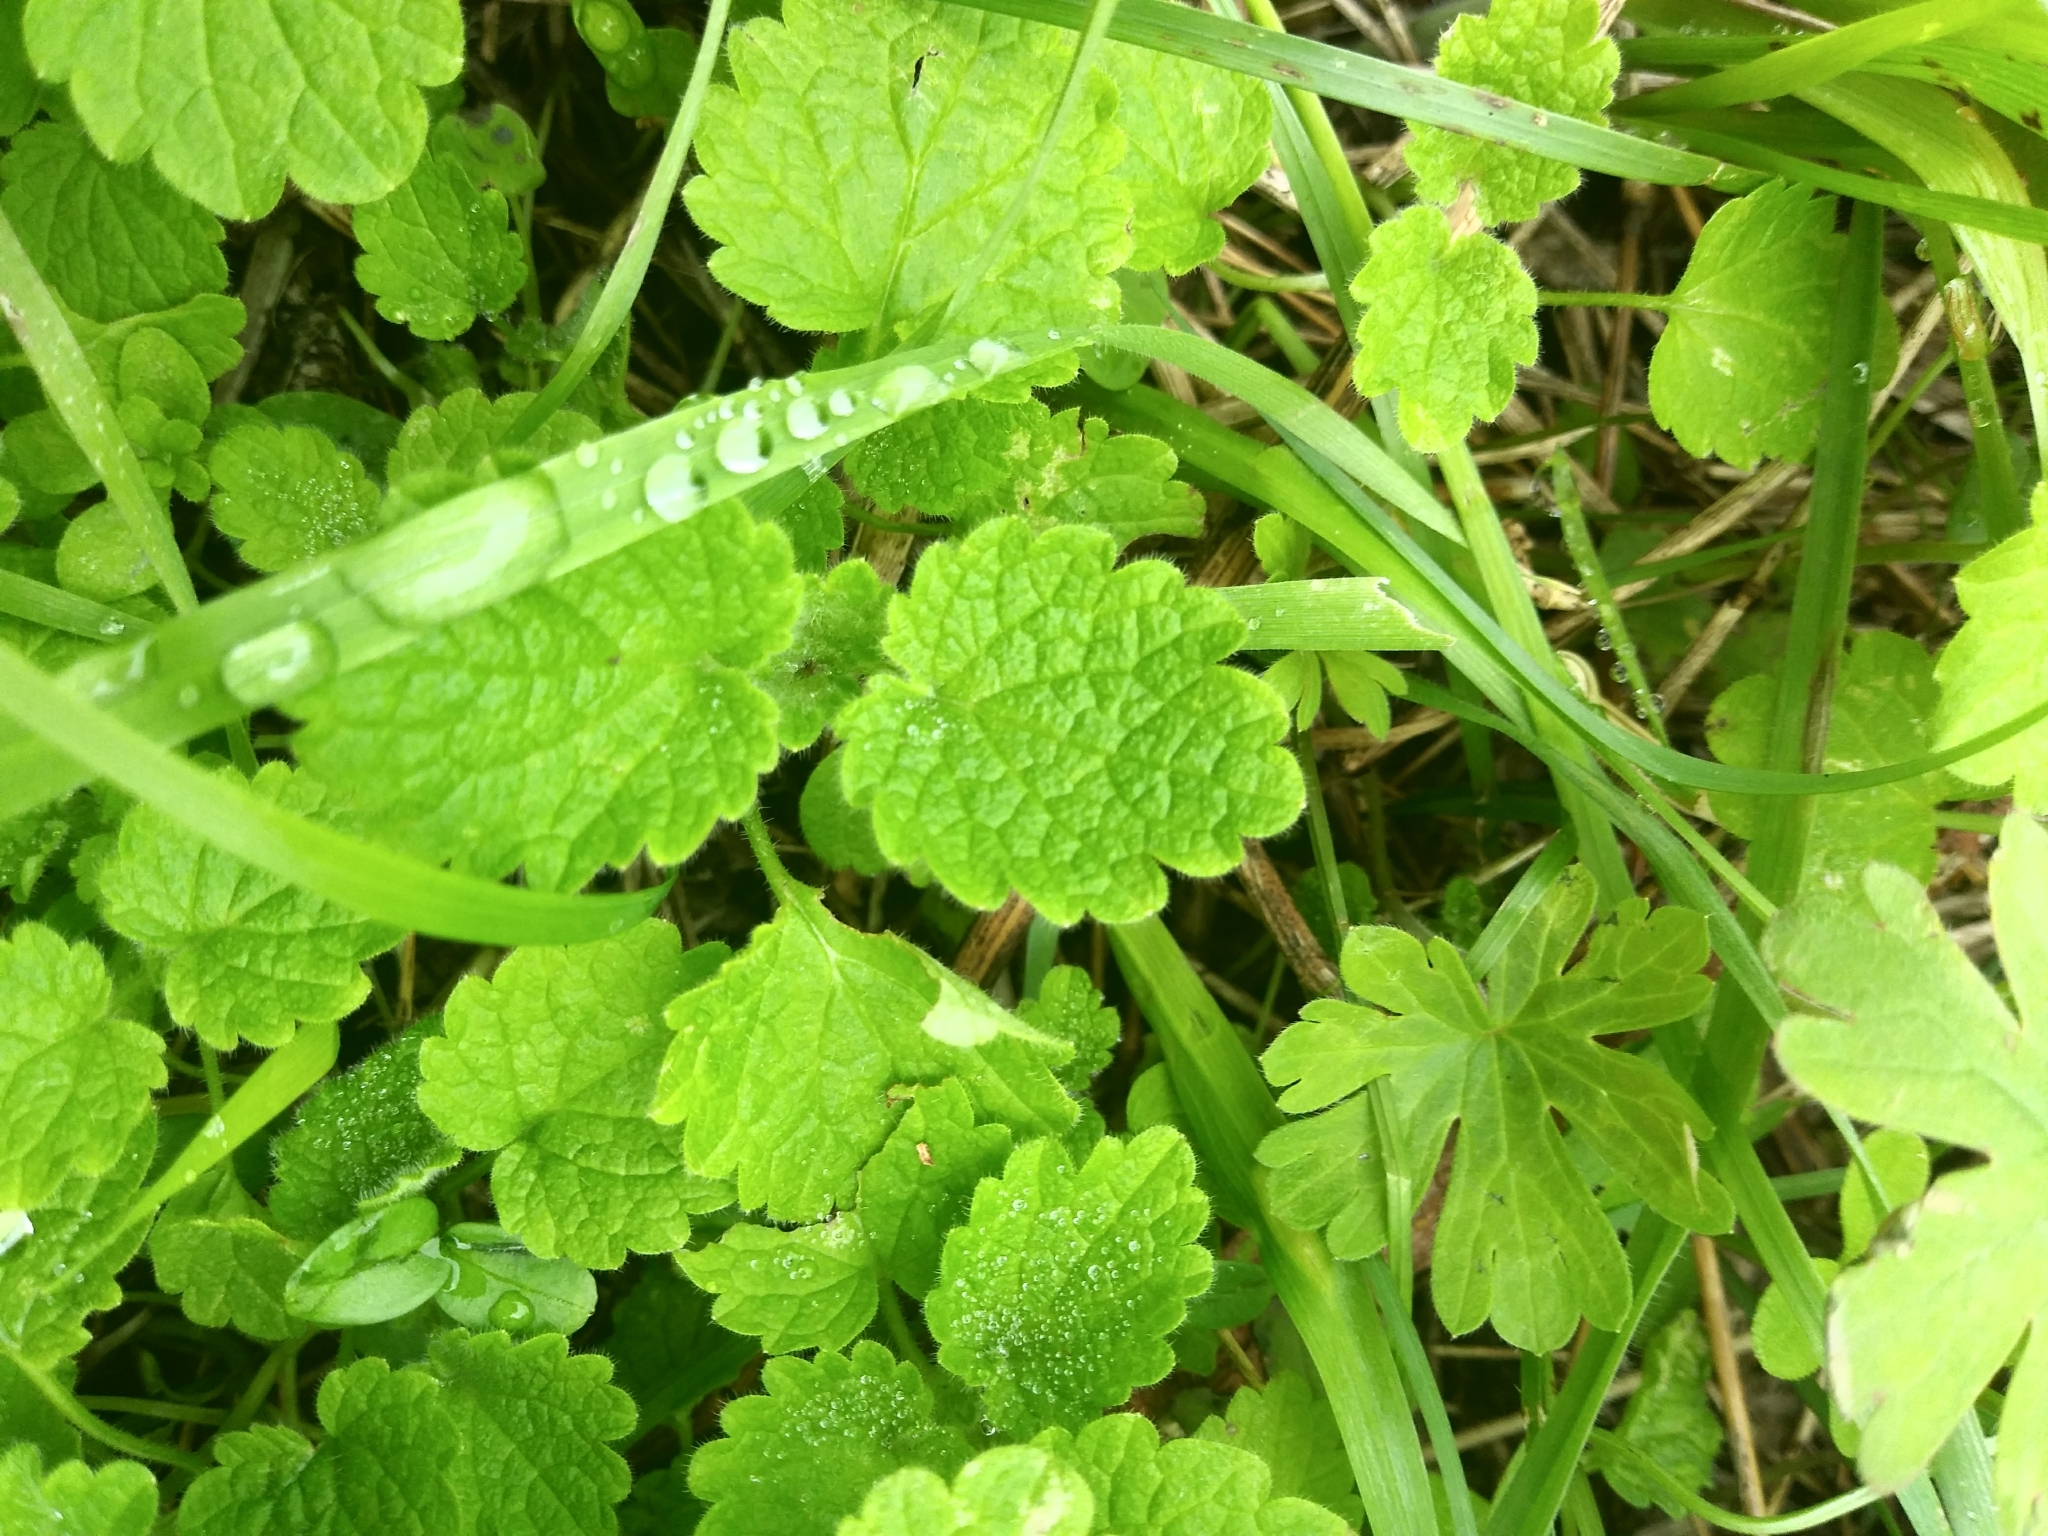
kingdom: Plantae
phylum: Tracheophyta
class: Magnoliopsida
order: Lamiales
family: Lamiaceae
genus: Lamium
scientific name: Lamium purpureum
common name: Red dead-nettle
